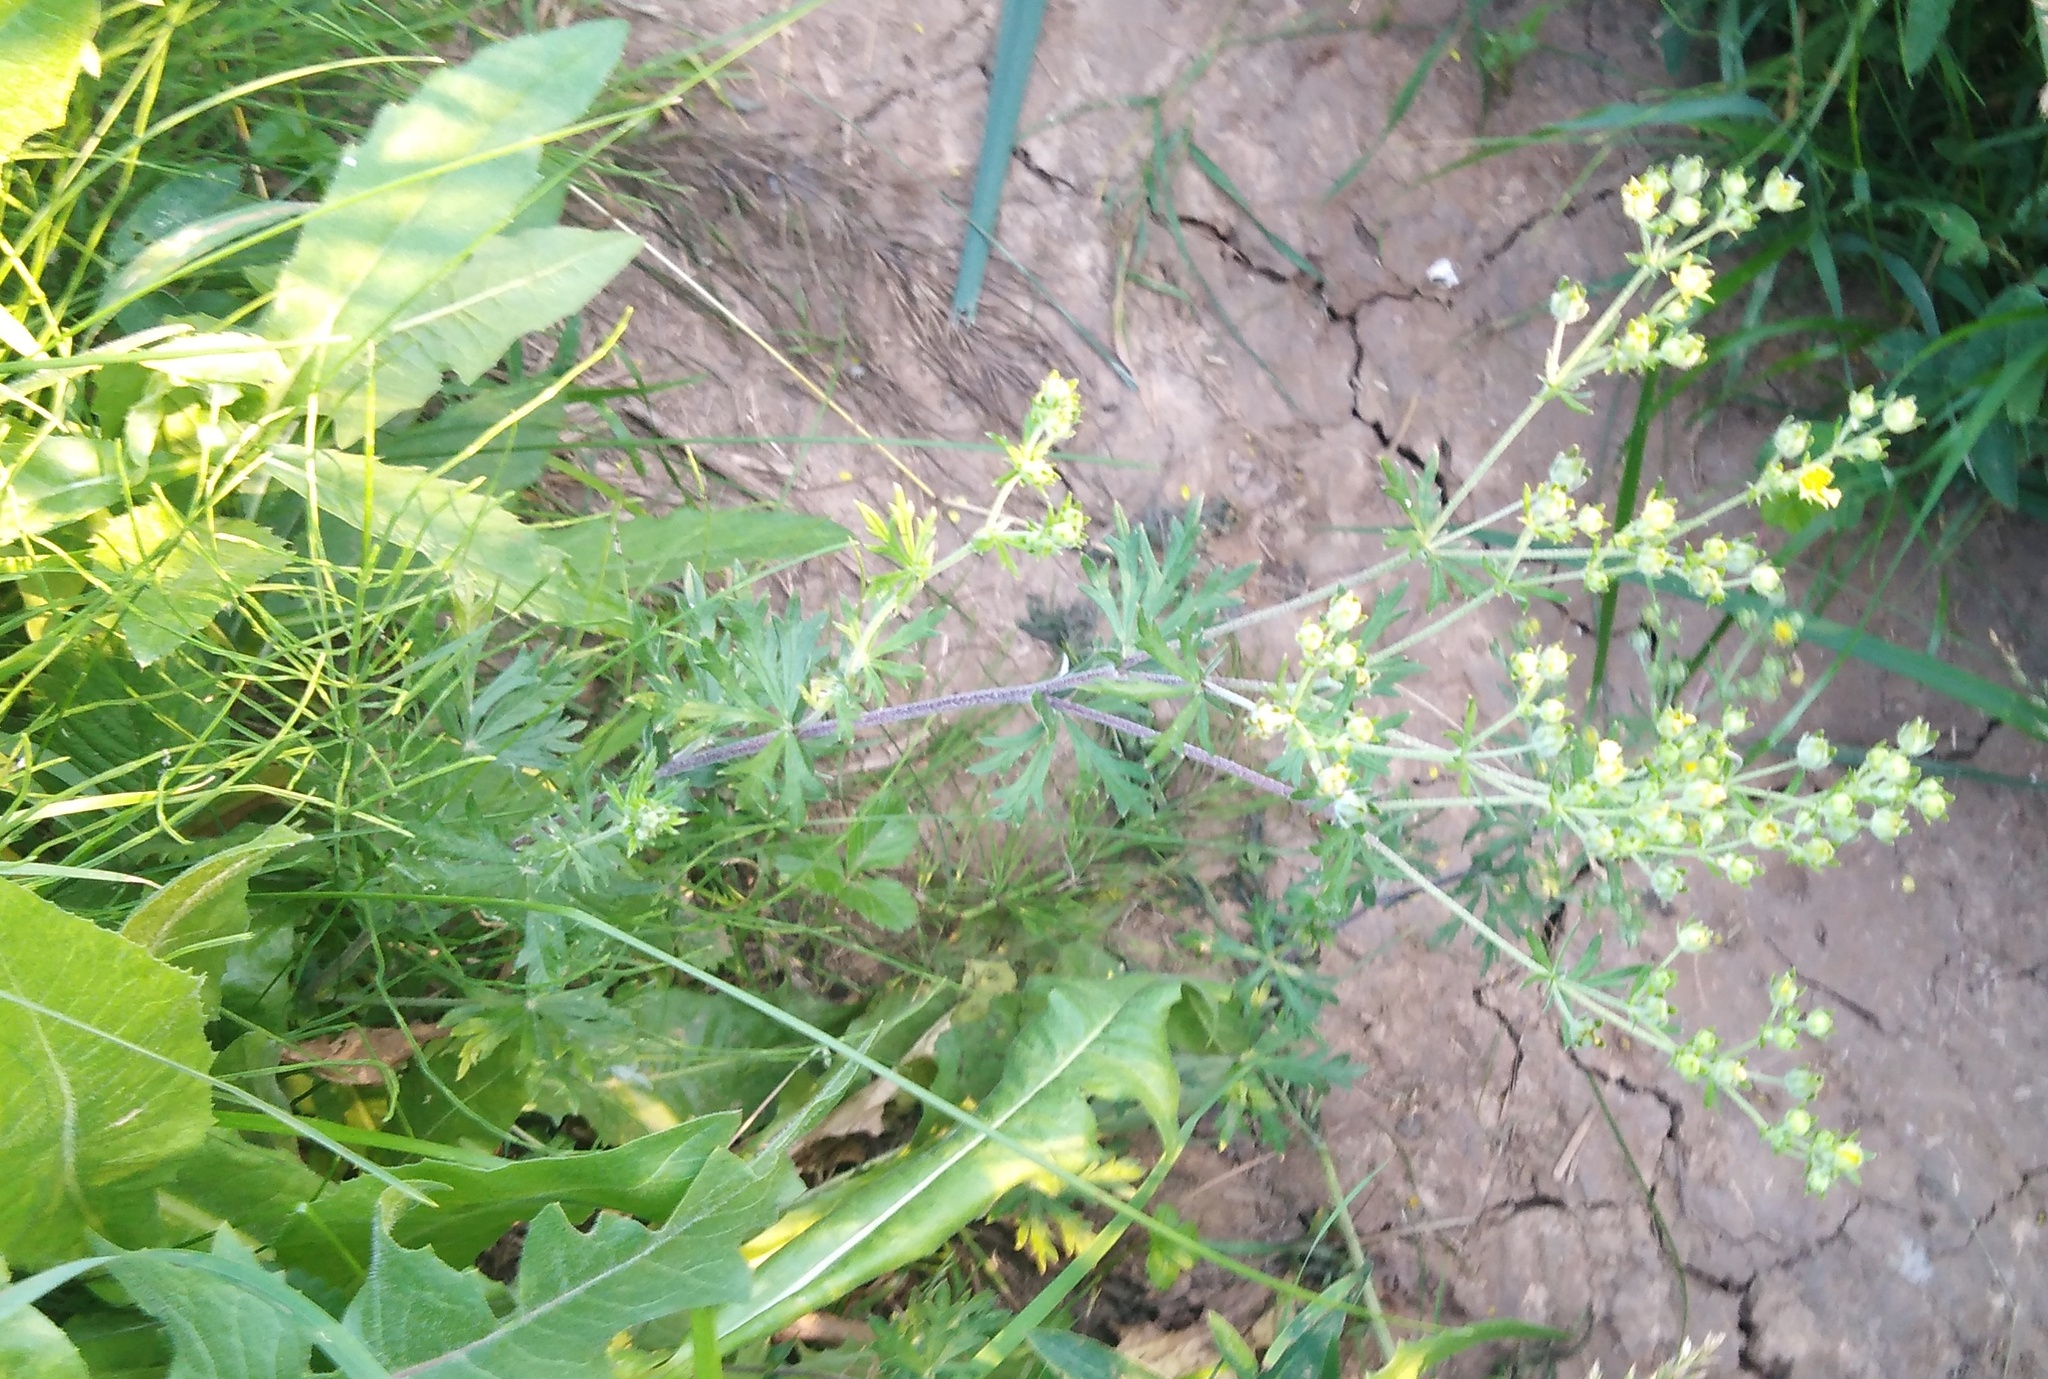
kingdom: Plantae
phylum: Tracheophyta
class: Magnoliopsida
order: Rosales
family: Rosaceae
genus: Potentilla
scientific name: Potentilla argentea
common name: Hoary cinquefoil
